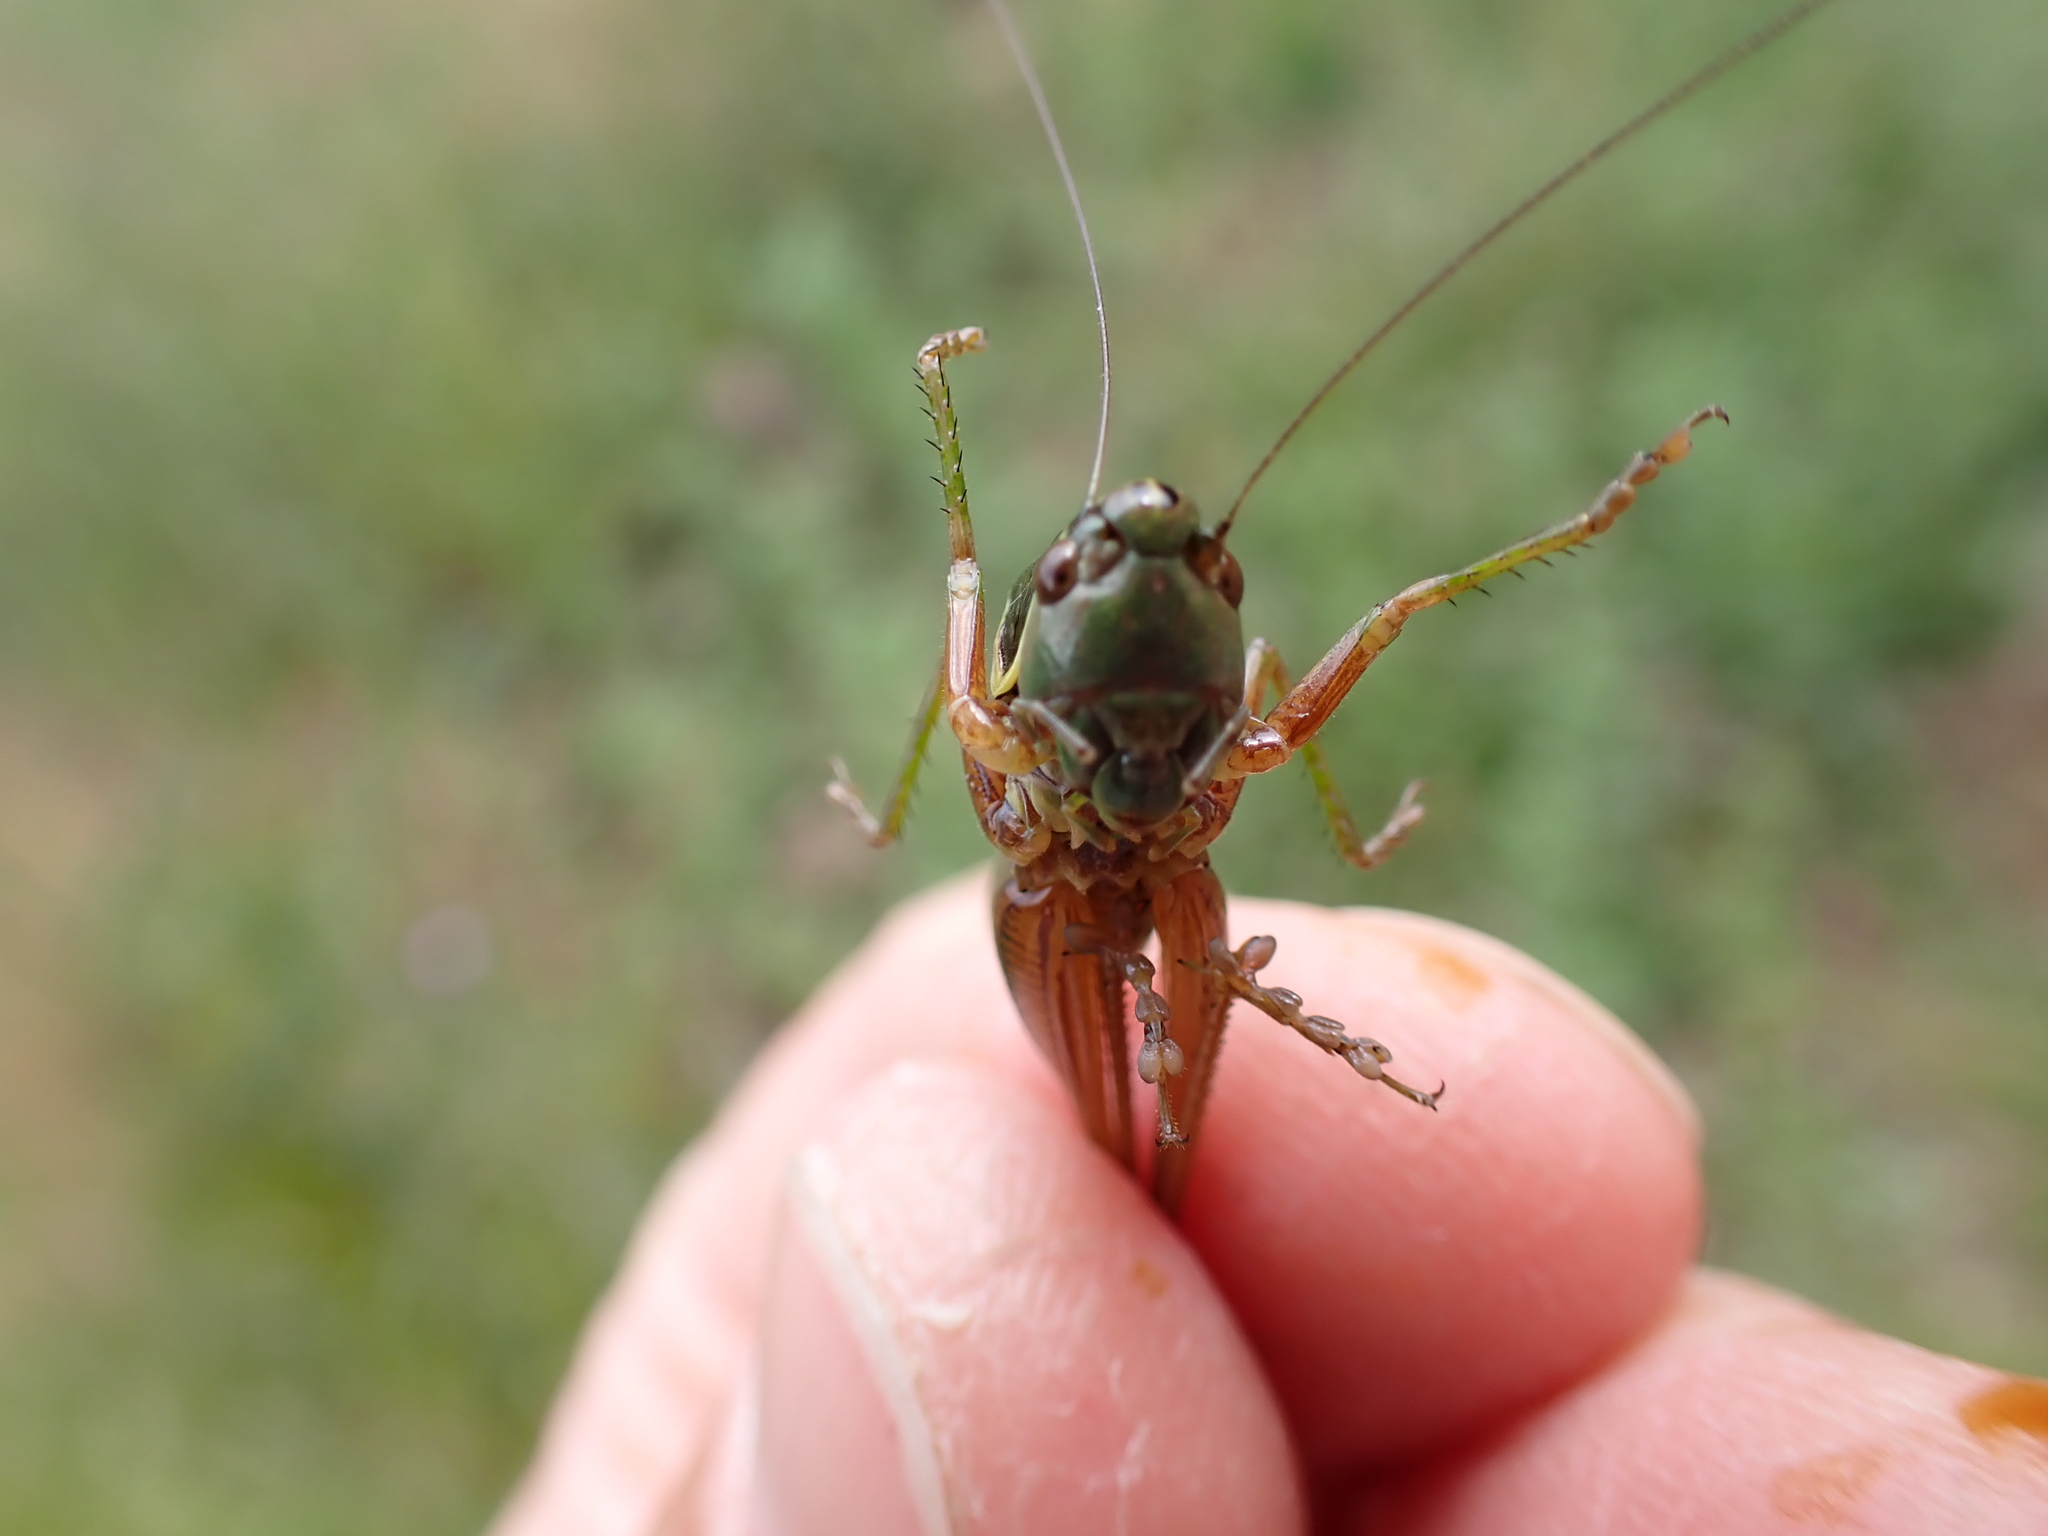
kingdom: Animalia
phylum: Arthropoda
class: Insecta
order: Orthoptera
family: Tettigoniidae
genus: Roeseliana
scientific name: Roeseliana roeselii
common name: Roesel's bush cricket
